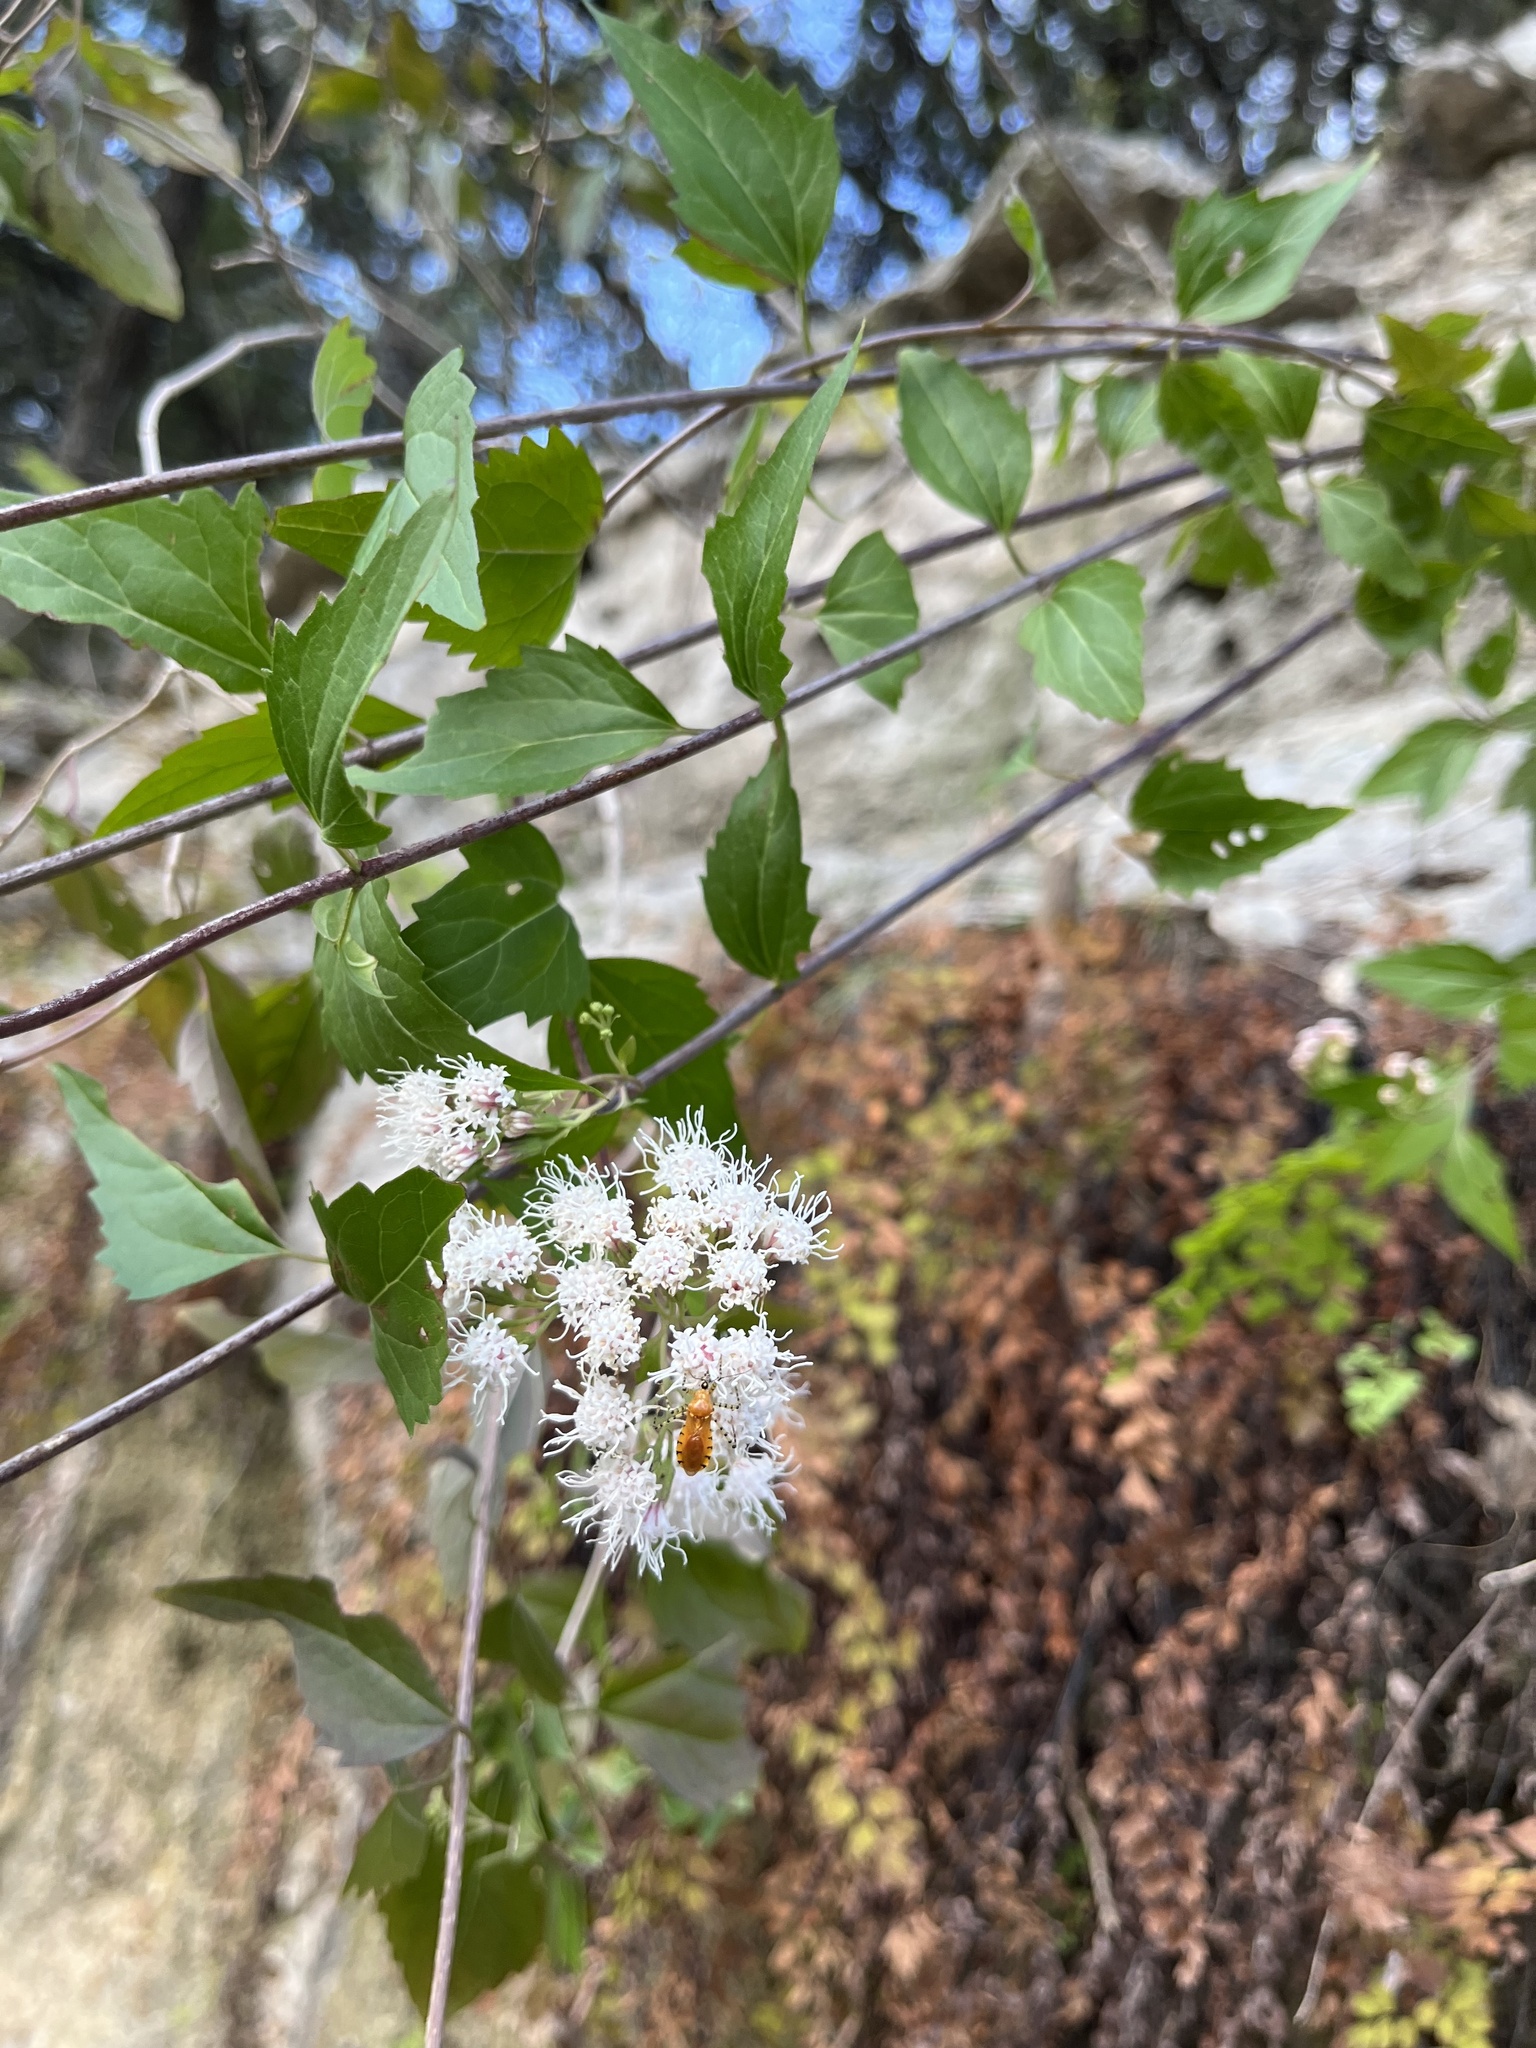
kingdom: Plantae
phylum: Tracheophyta
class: Magnoliopsida
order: Asterales
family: Asteraceae
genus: Ageratina
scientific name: Ageratina havanensis
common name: Havana snakeroot
